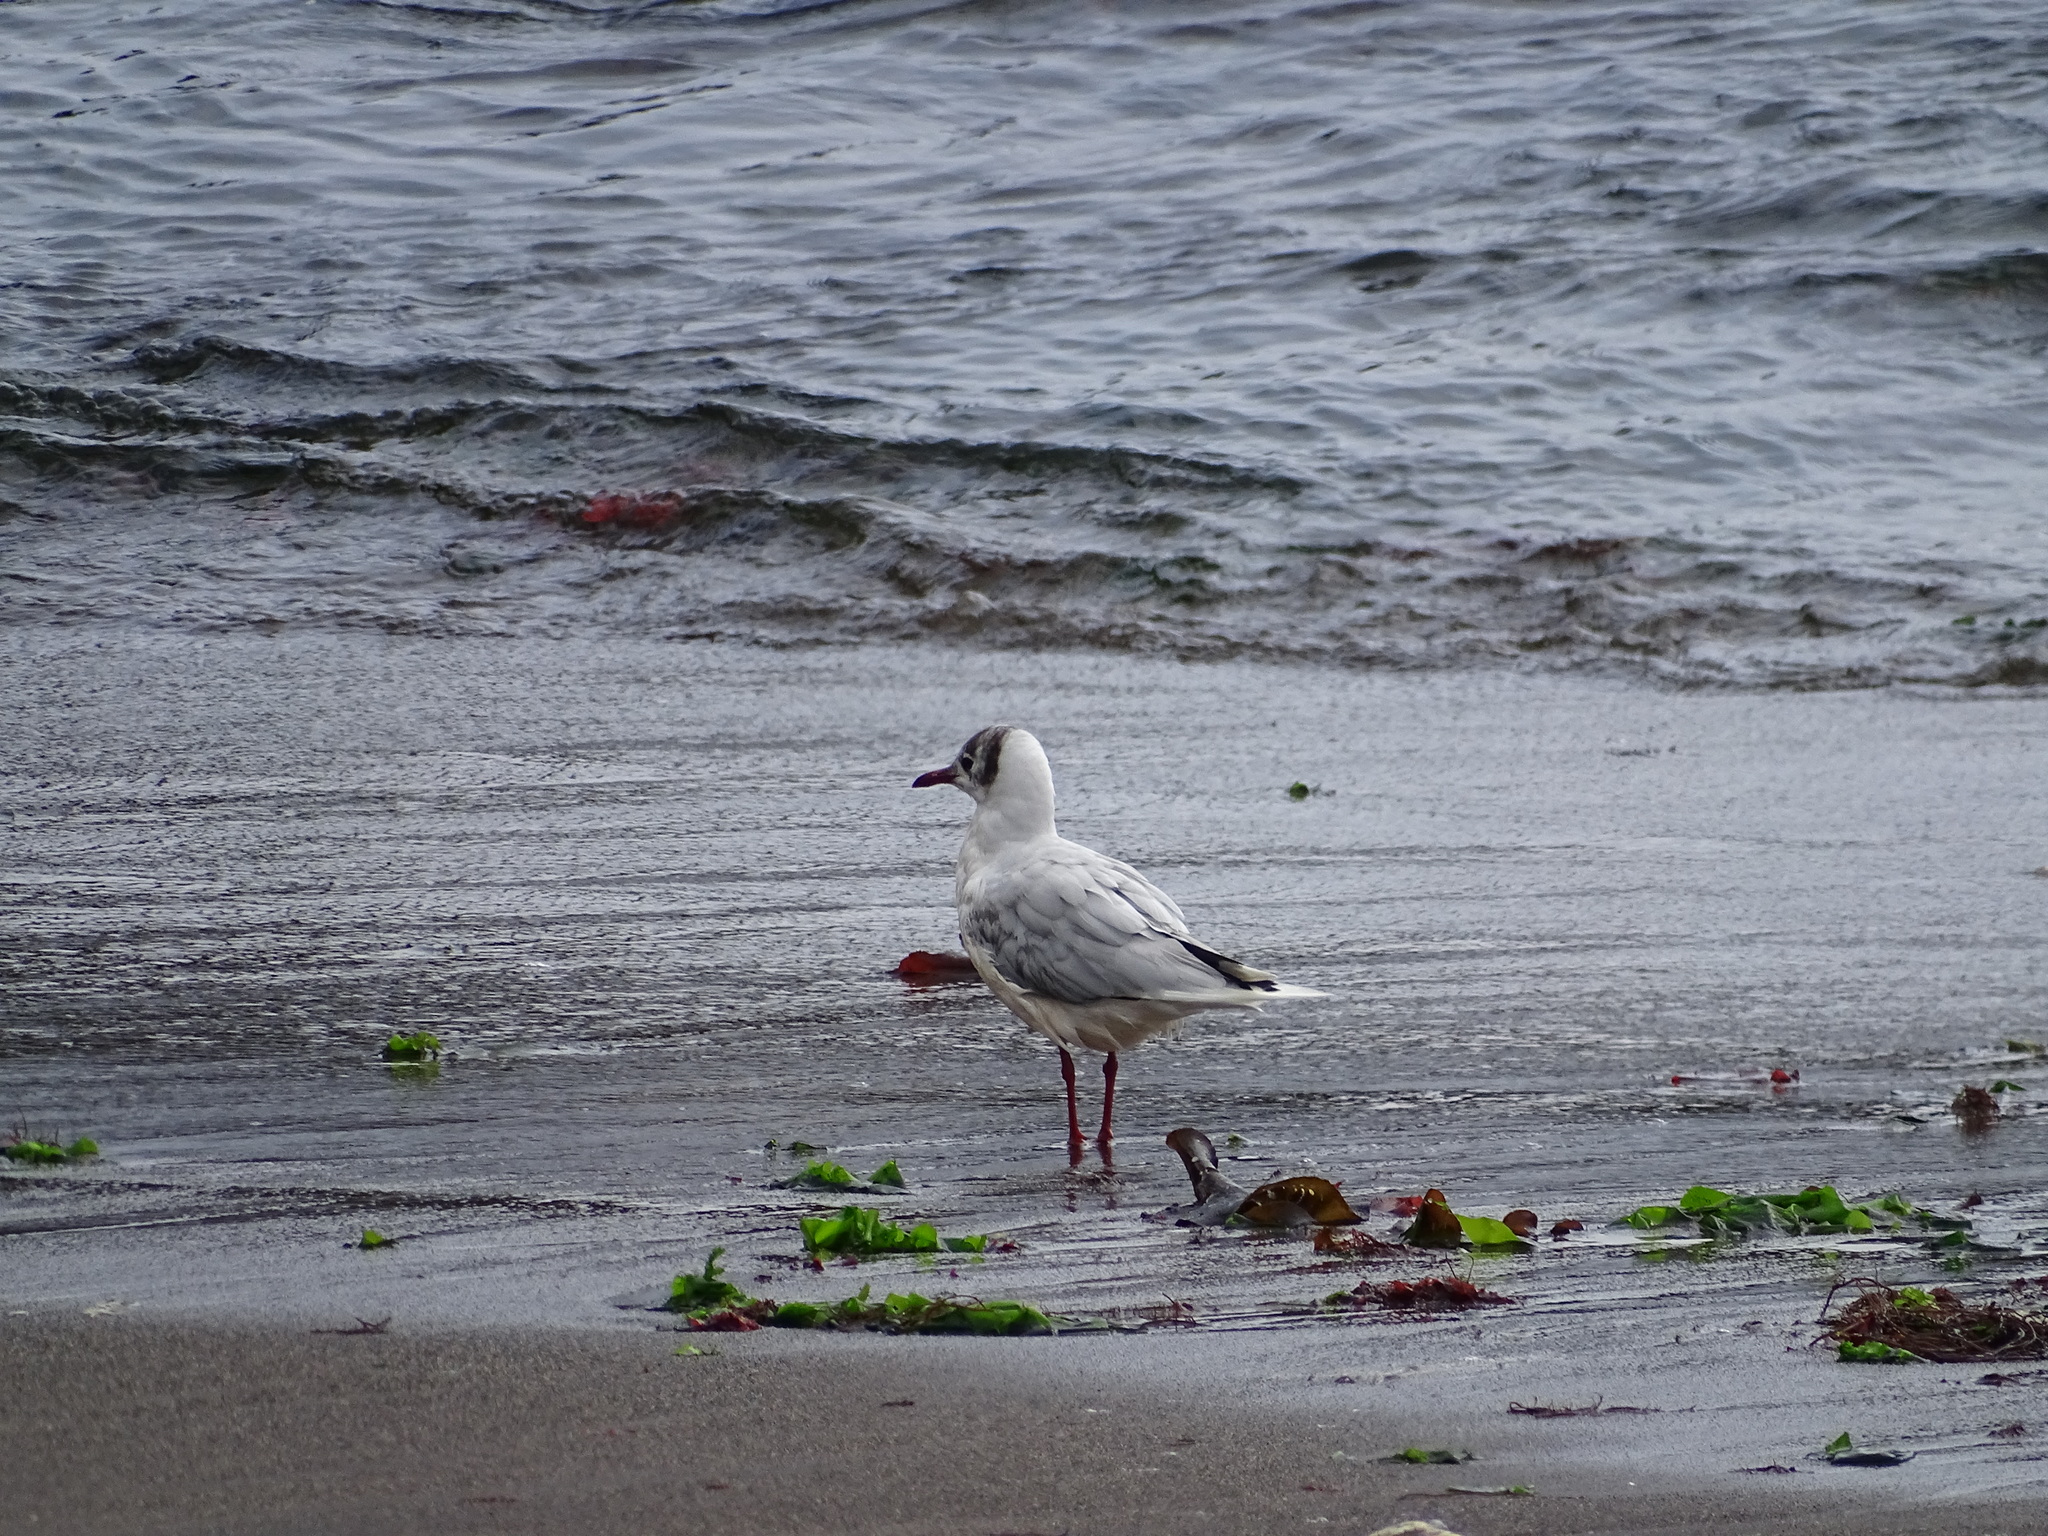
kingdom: Animalia
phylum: Chordata
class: Aves
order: Charadriiformes
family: Laridae
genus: Chroicocephalus
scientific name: Chroicocephalus maculipennis
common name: Brown-hooded gull
